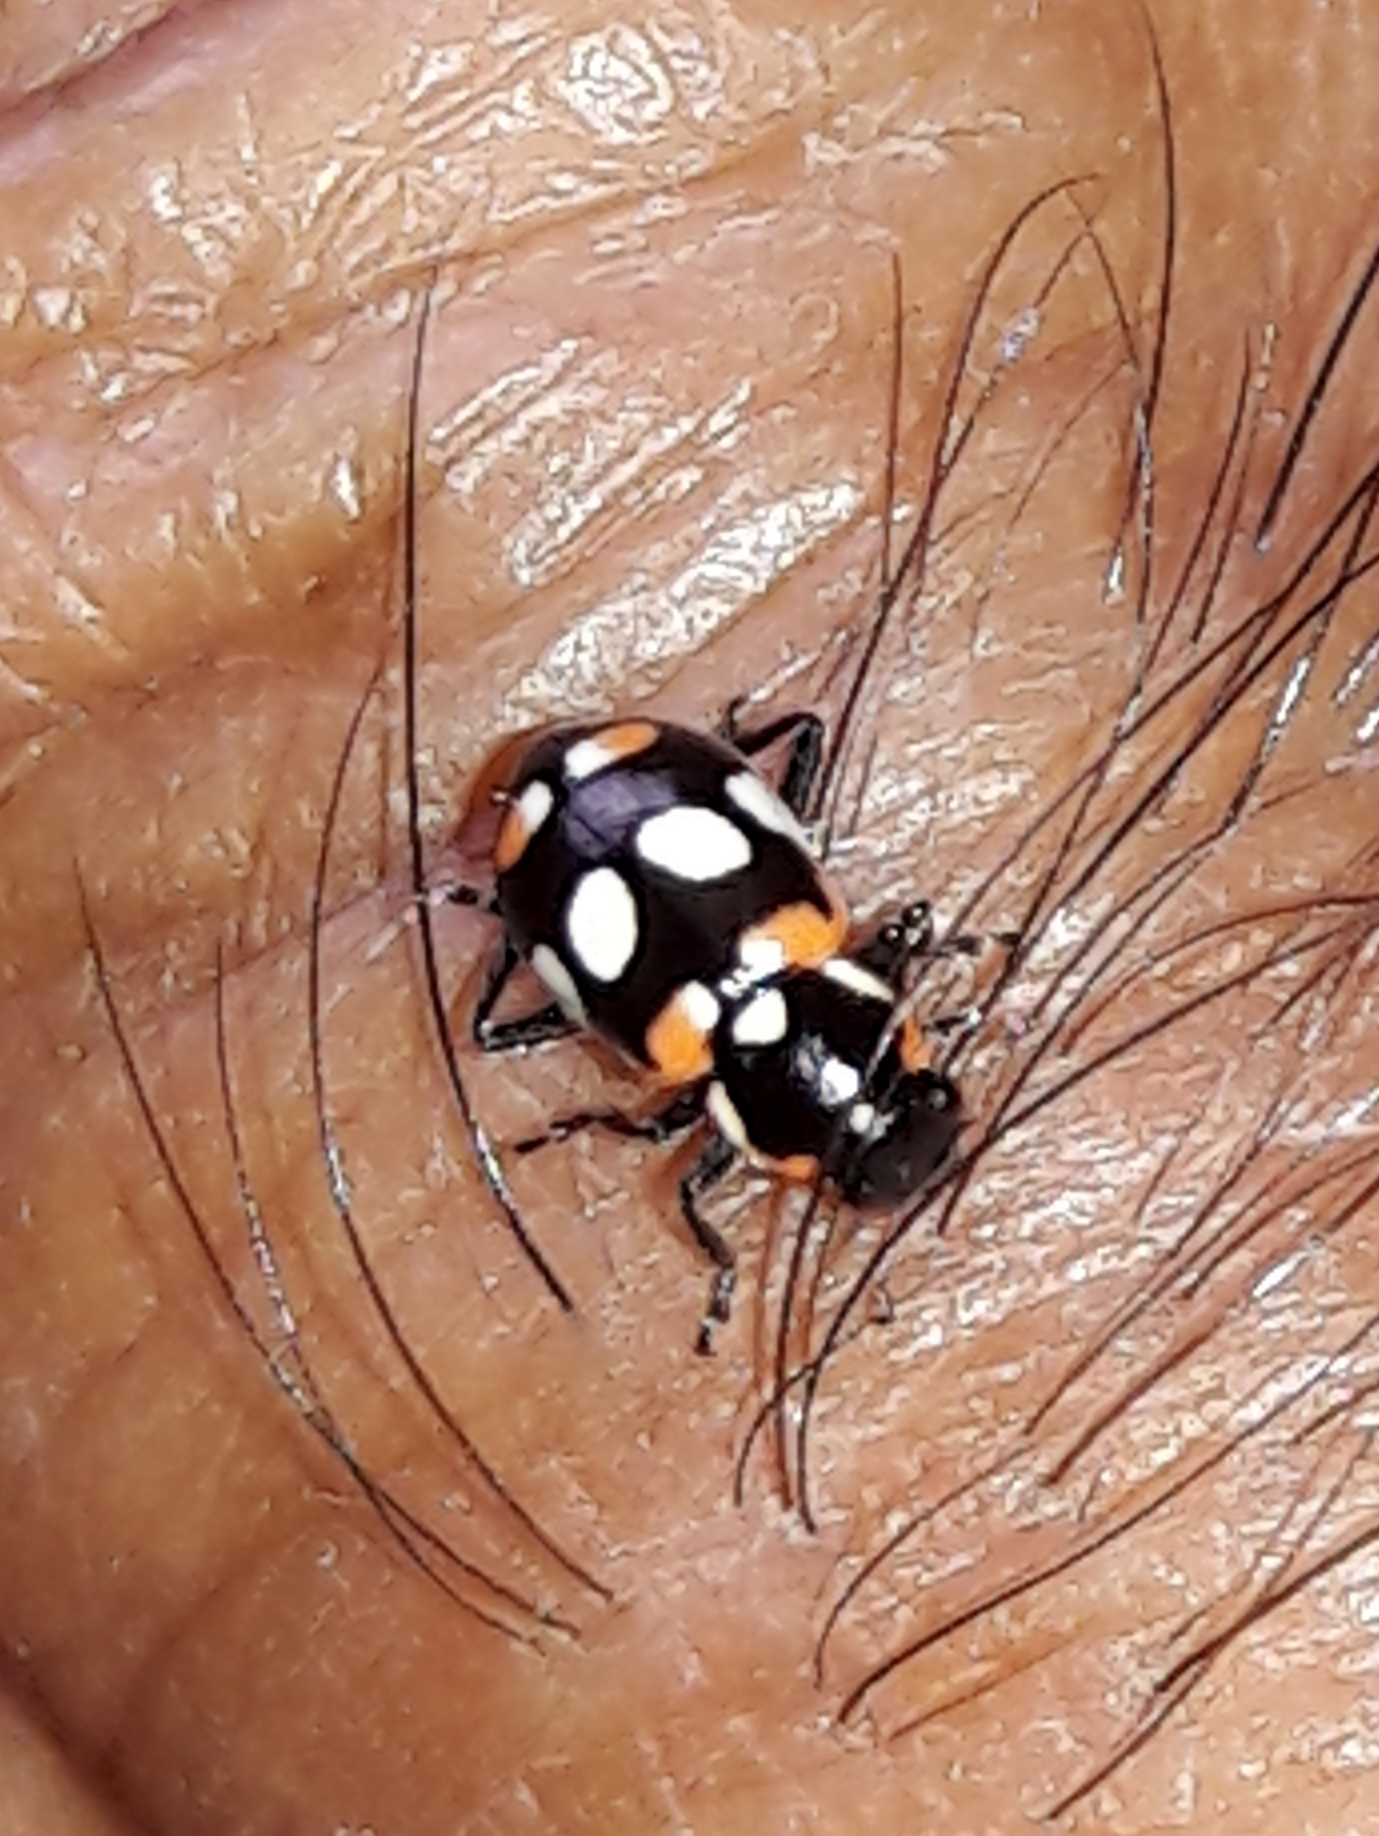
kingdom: Animalia
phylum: Arthropoda
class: Insecta
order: Coleoptera
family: Coccinellidae
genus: Eriopis
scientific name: Eriopis connexa
